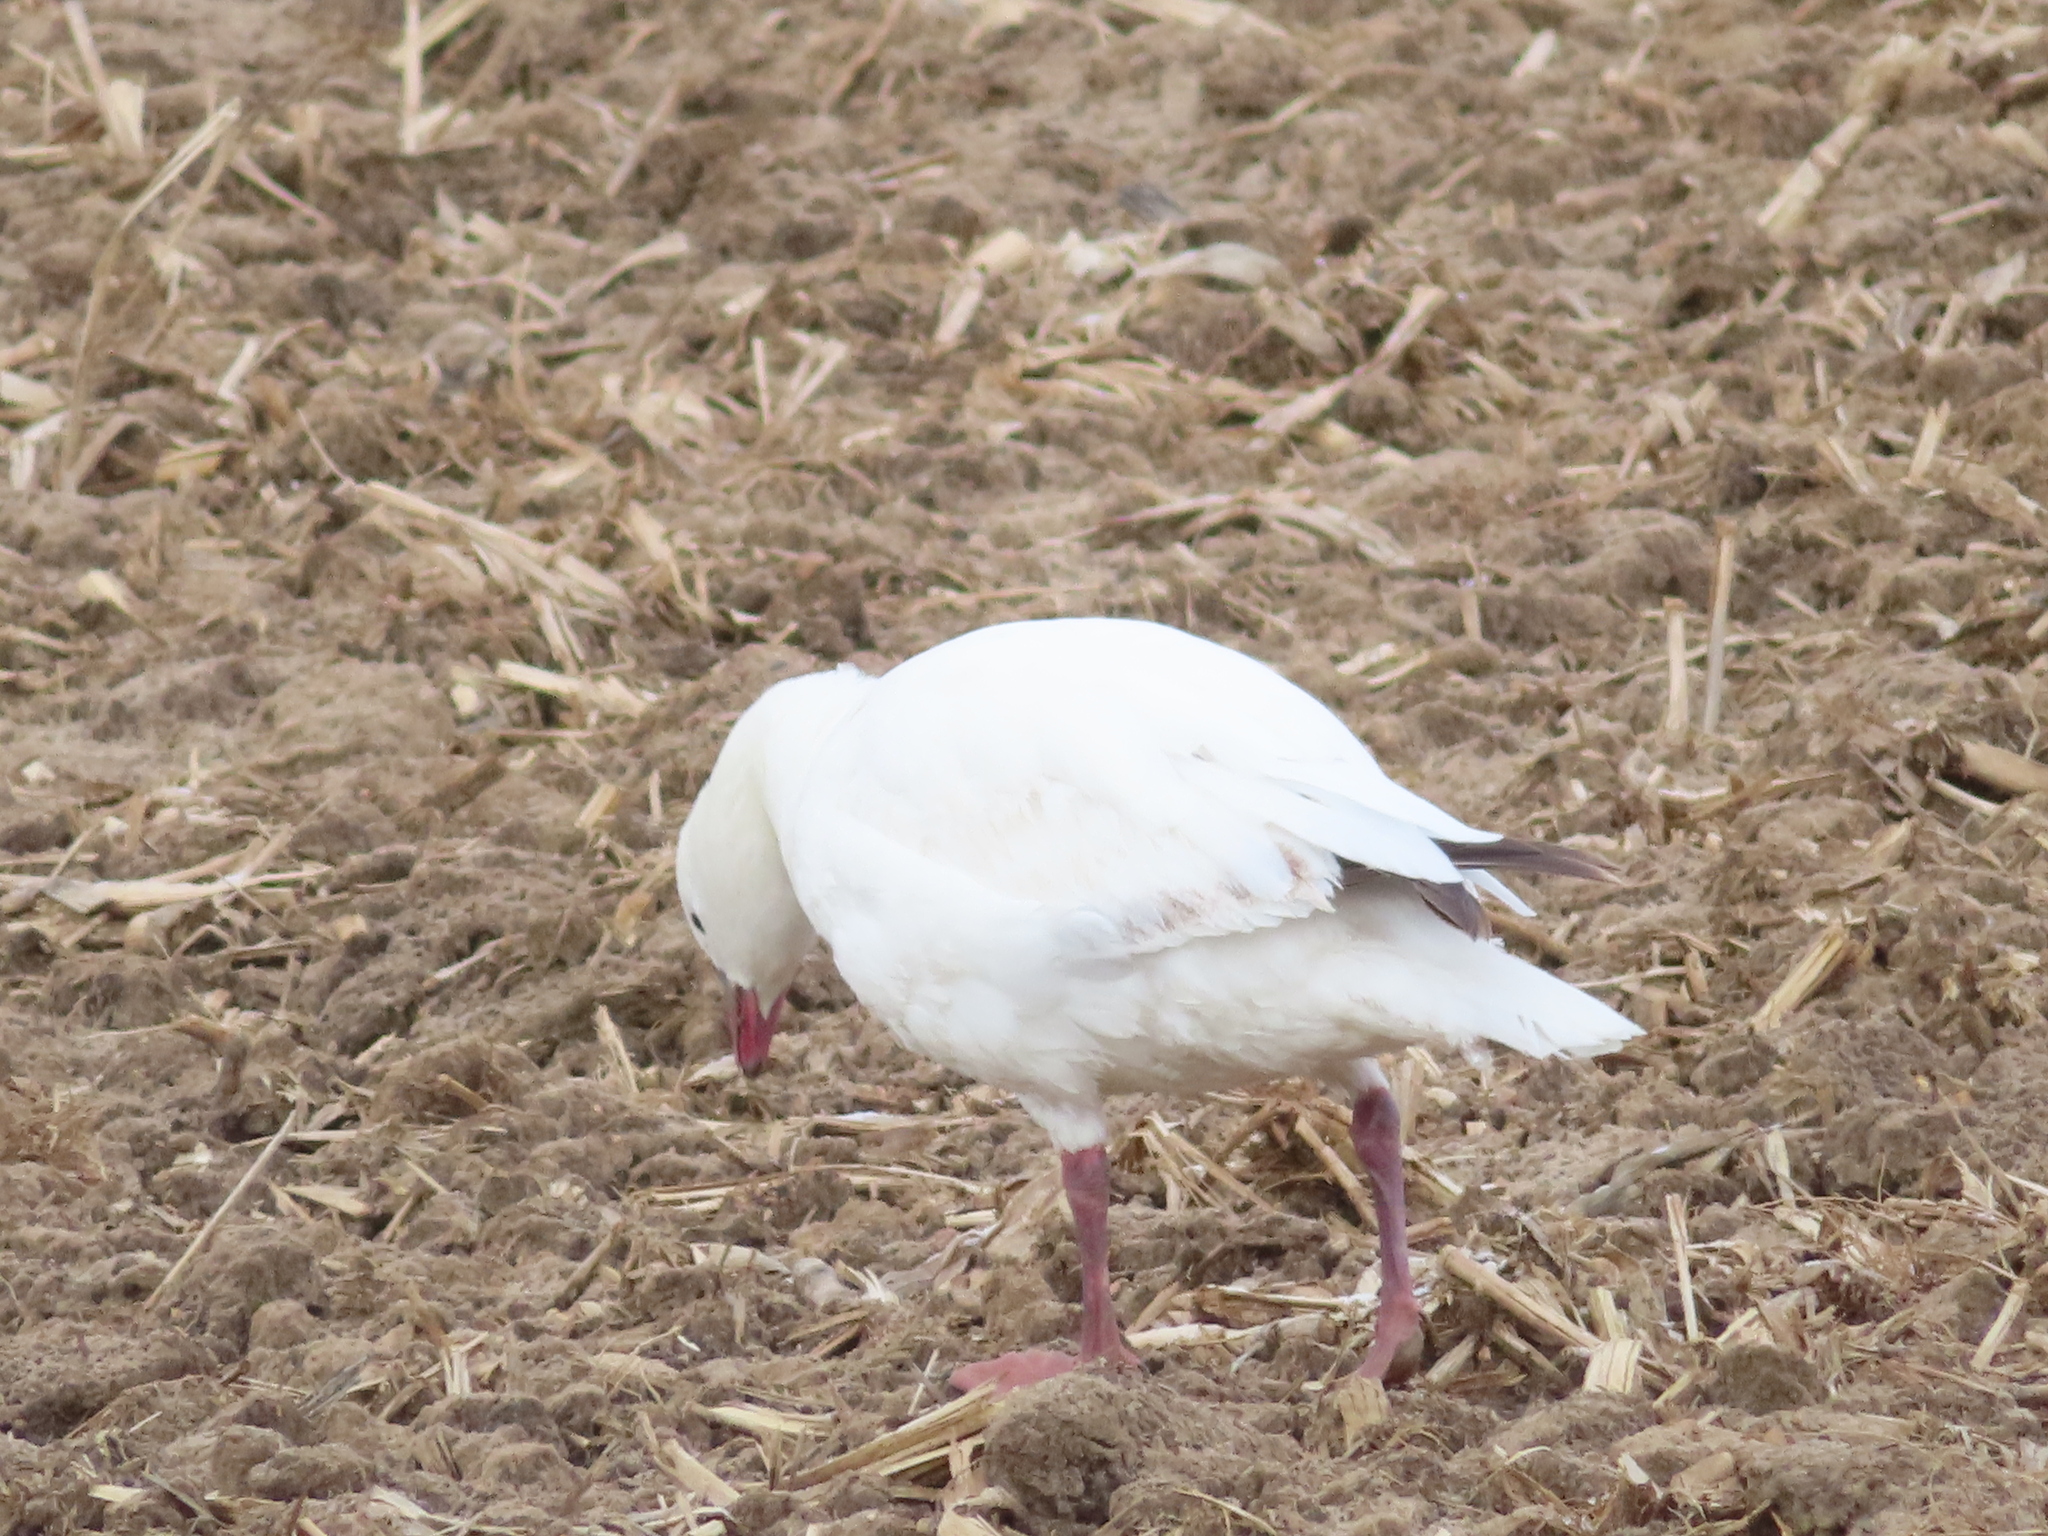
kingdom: Animalia
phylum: Chordata
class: Aves
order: Anseriformes
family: Anatidae
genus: Anser
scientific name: Anser rossii
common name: Ross's goose
